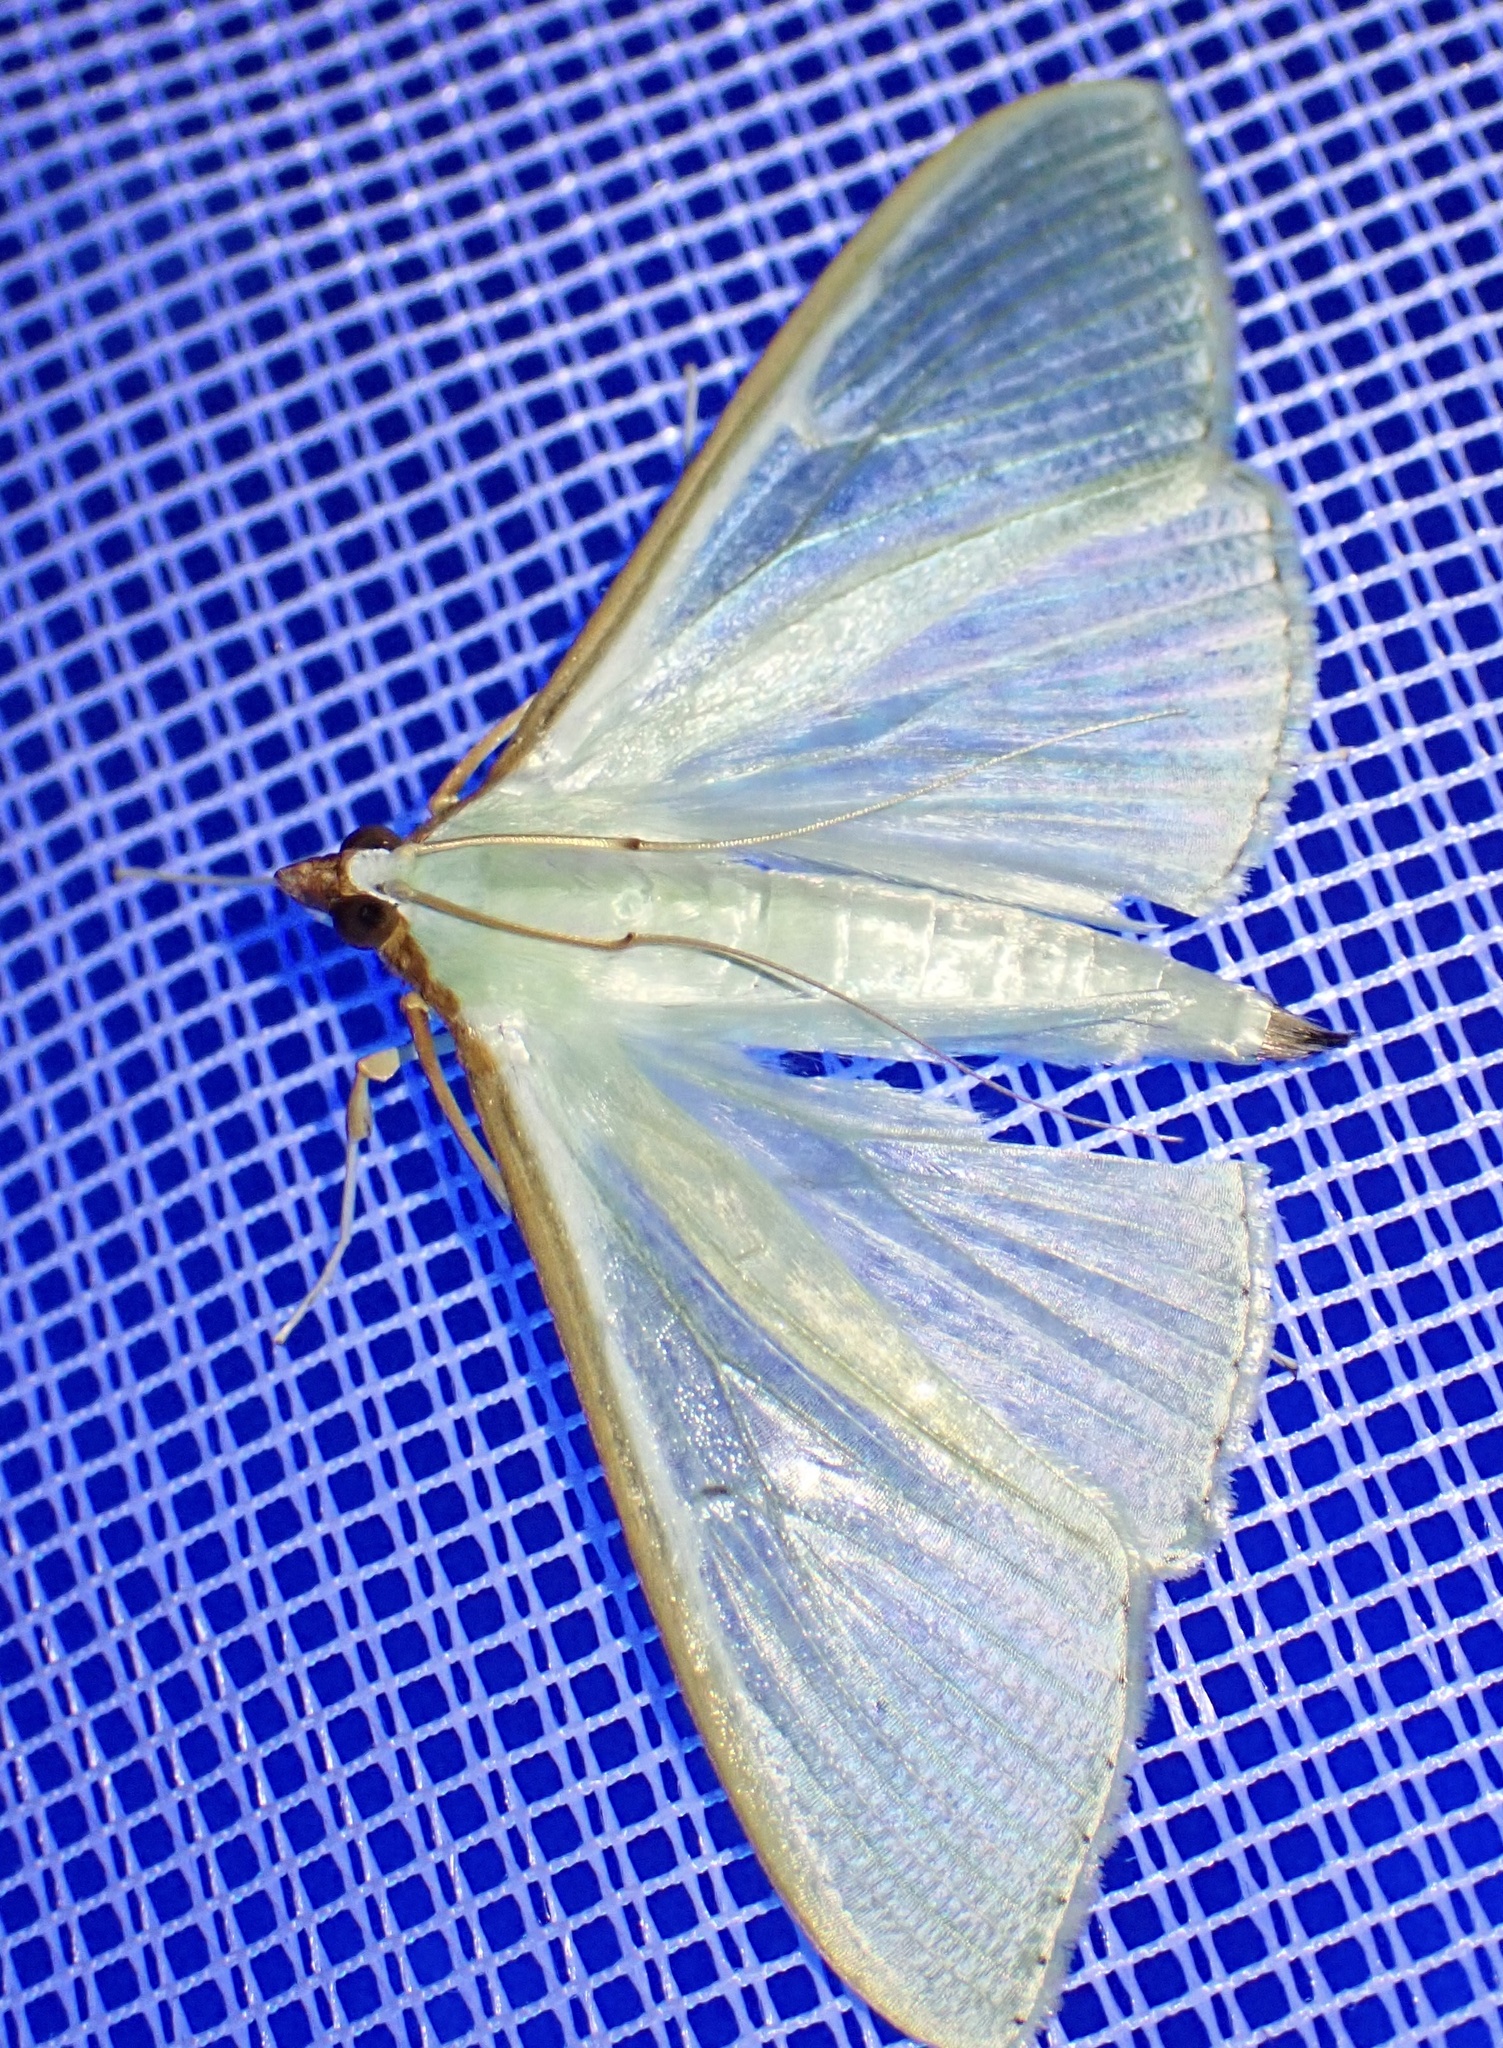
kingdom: Animalia
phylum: Arthropoda
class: Insecta
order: Lepidoptera
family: Crambidae
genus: Palpita
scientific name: Palpita vitrealis
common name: Olive-tree pearl
